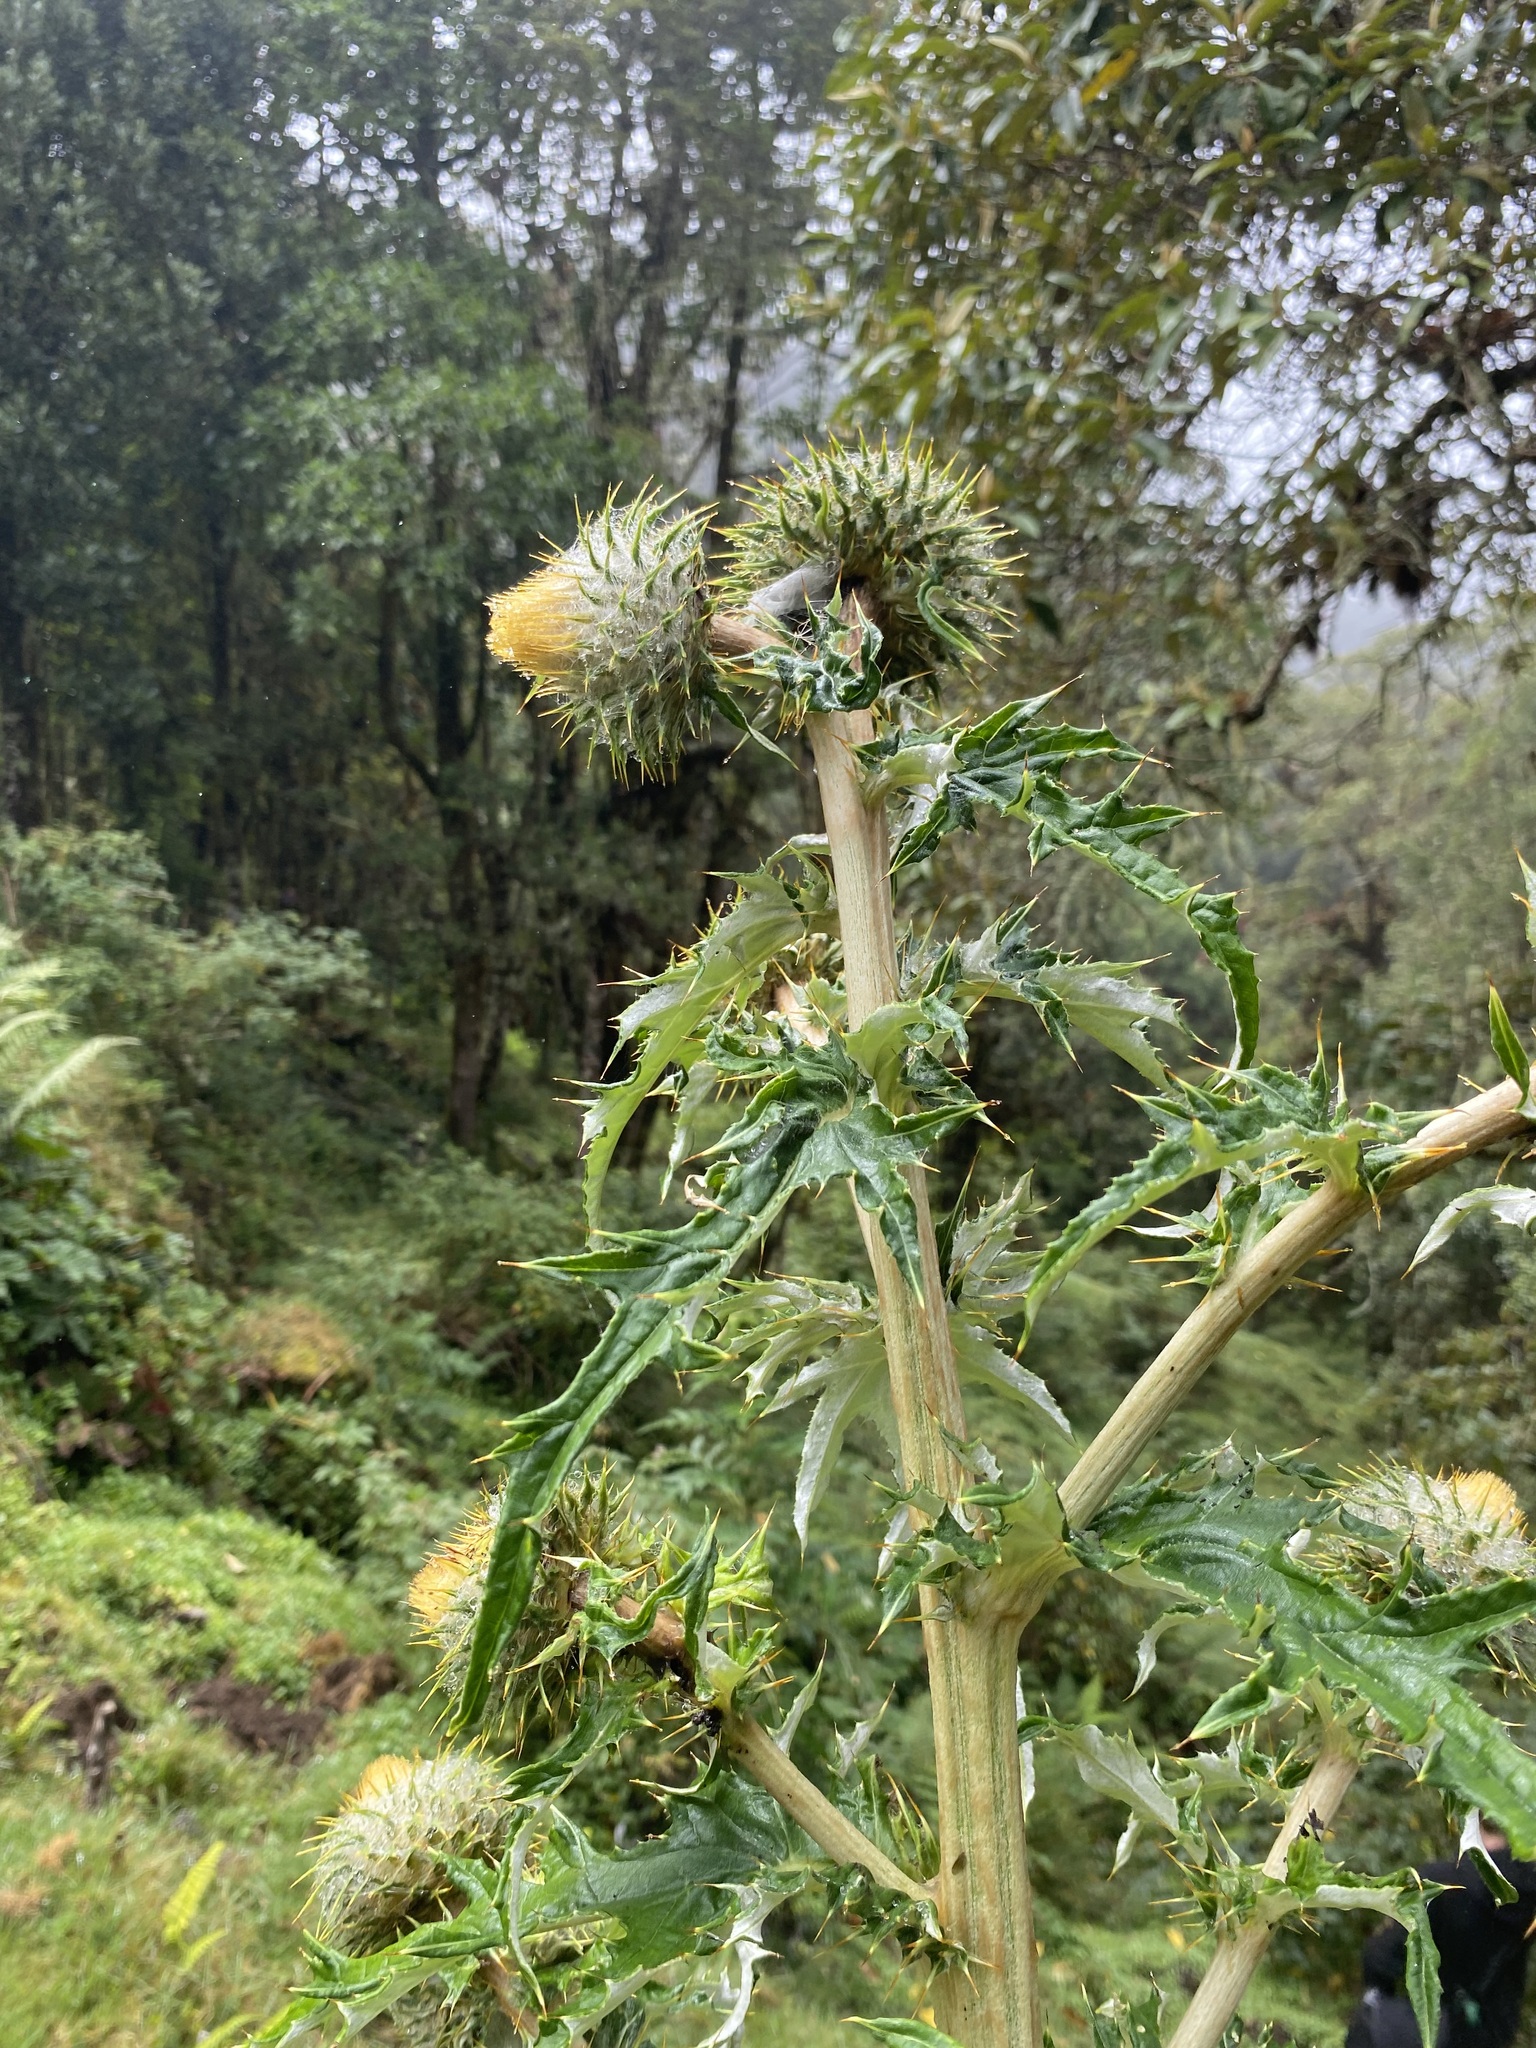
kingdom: Plantae
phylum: Tracheophyta
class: Magnoliopsida
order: Asterales
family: Asteraceae
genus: Cirsium
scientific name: Cirsium subcoriaceum
